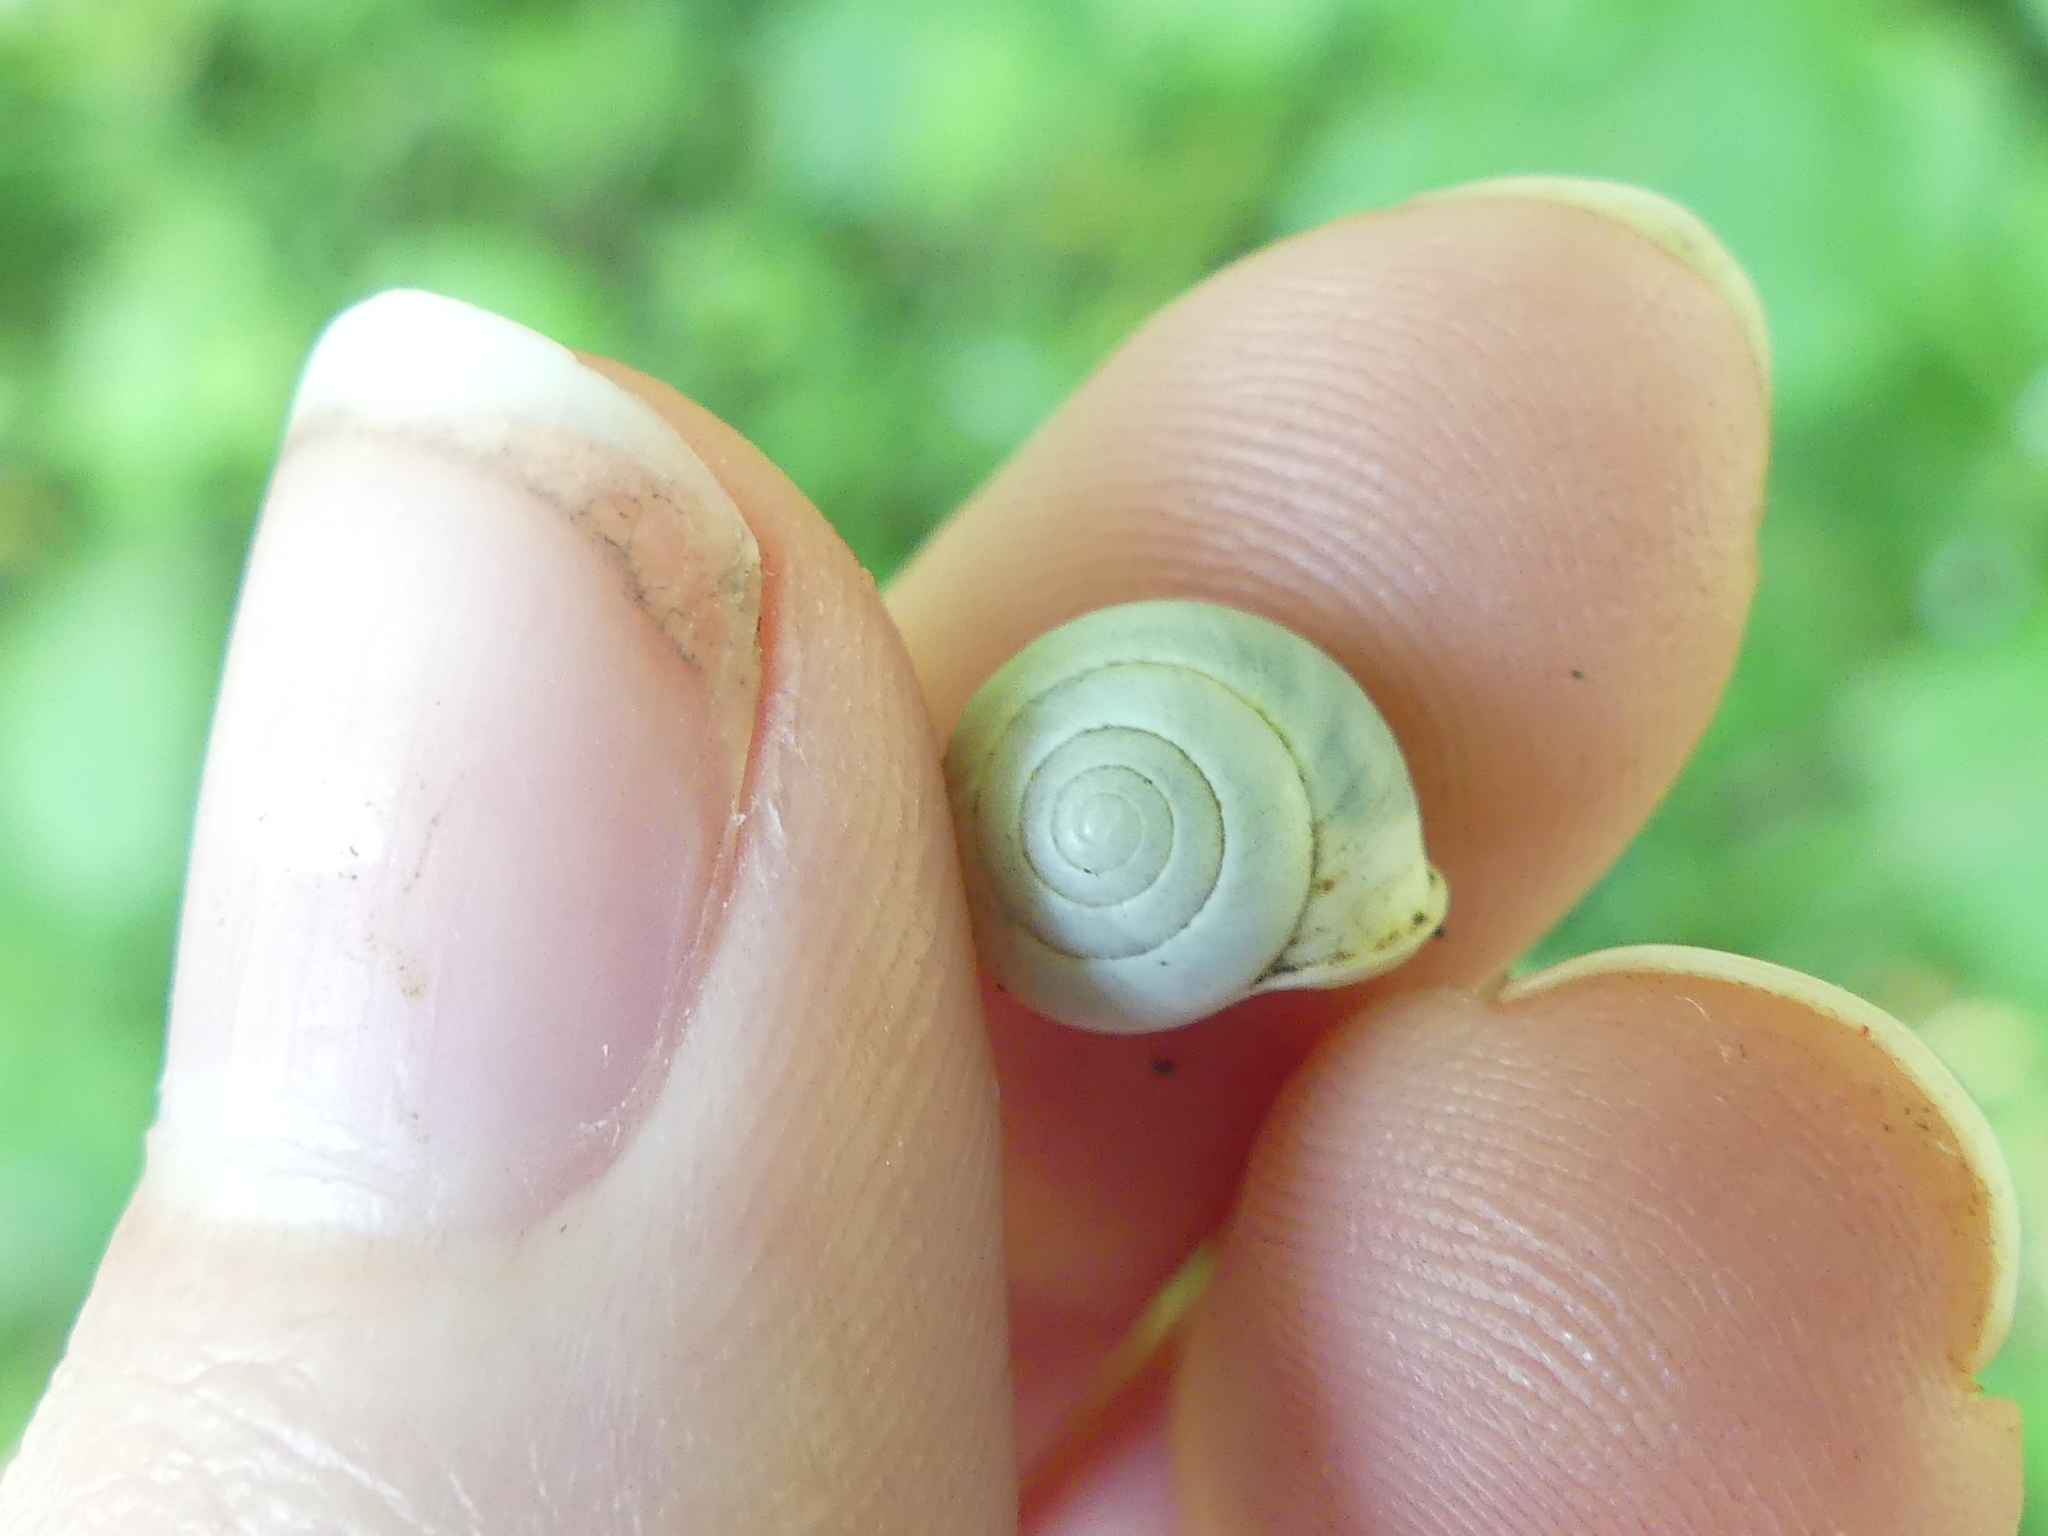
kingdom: Animalia
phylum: Mollusca
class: Gastropoda
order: Cycloneritida
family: Helicinidae
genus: Helicina
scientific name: Helicina orbiculata
